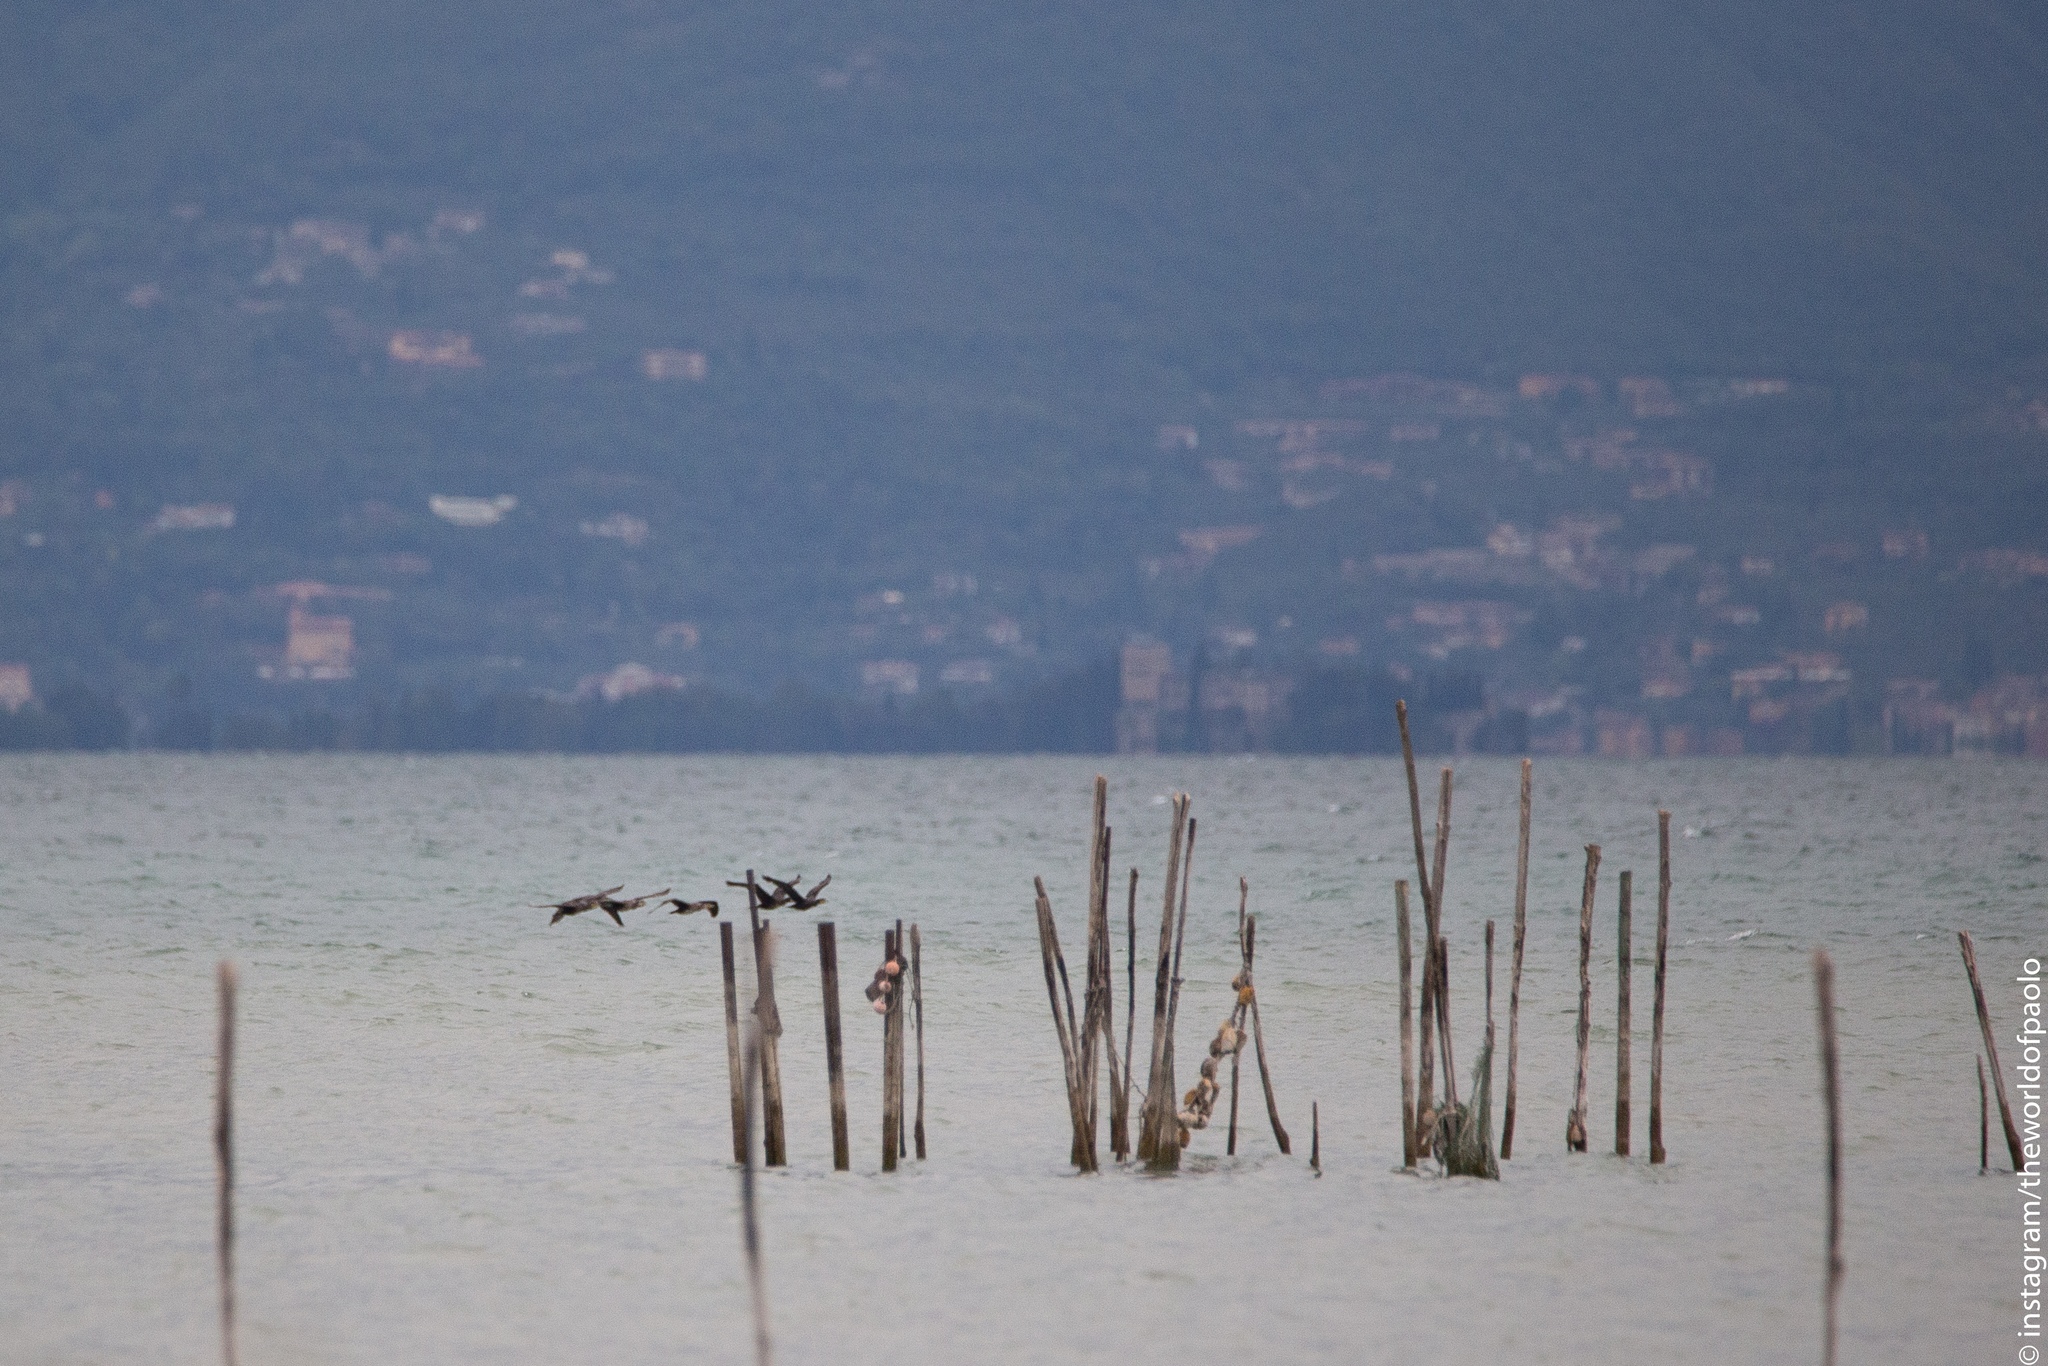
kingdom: Animalia
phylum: Chordata
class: Aves
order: Suliformes
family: Phalacrocoracidae
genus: Phalacrocorax
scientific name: Phalacrocorax carbo
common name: Great cormorant
